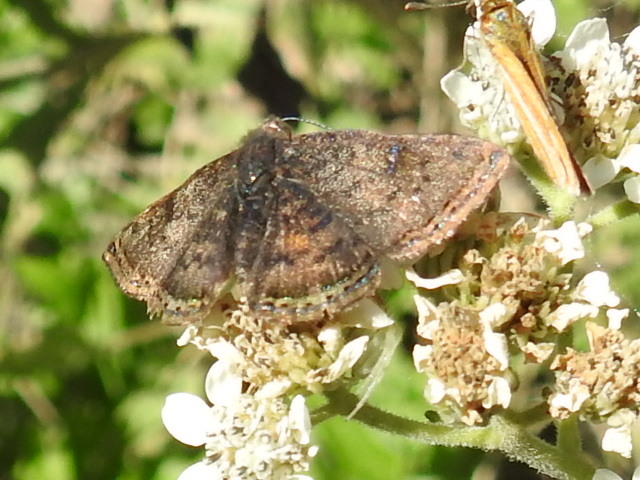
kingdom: Animalia
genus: Caria
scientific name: Caria ino
